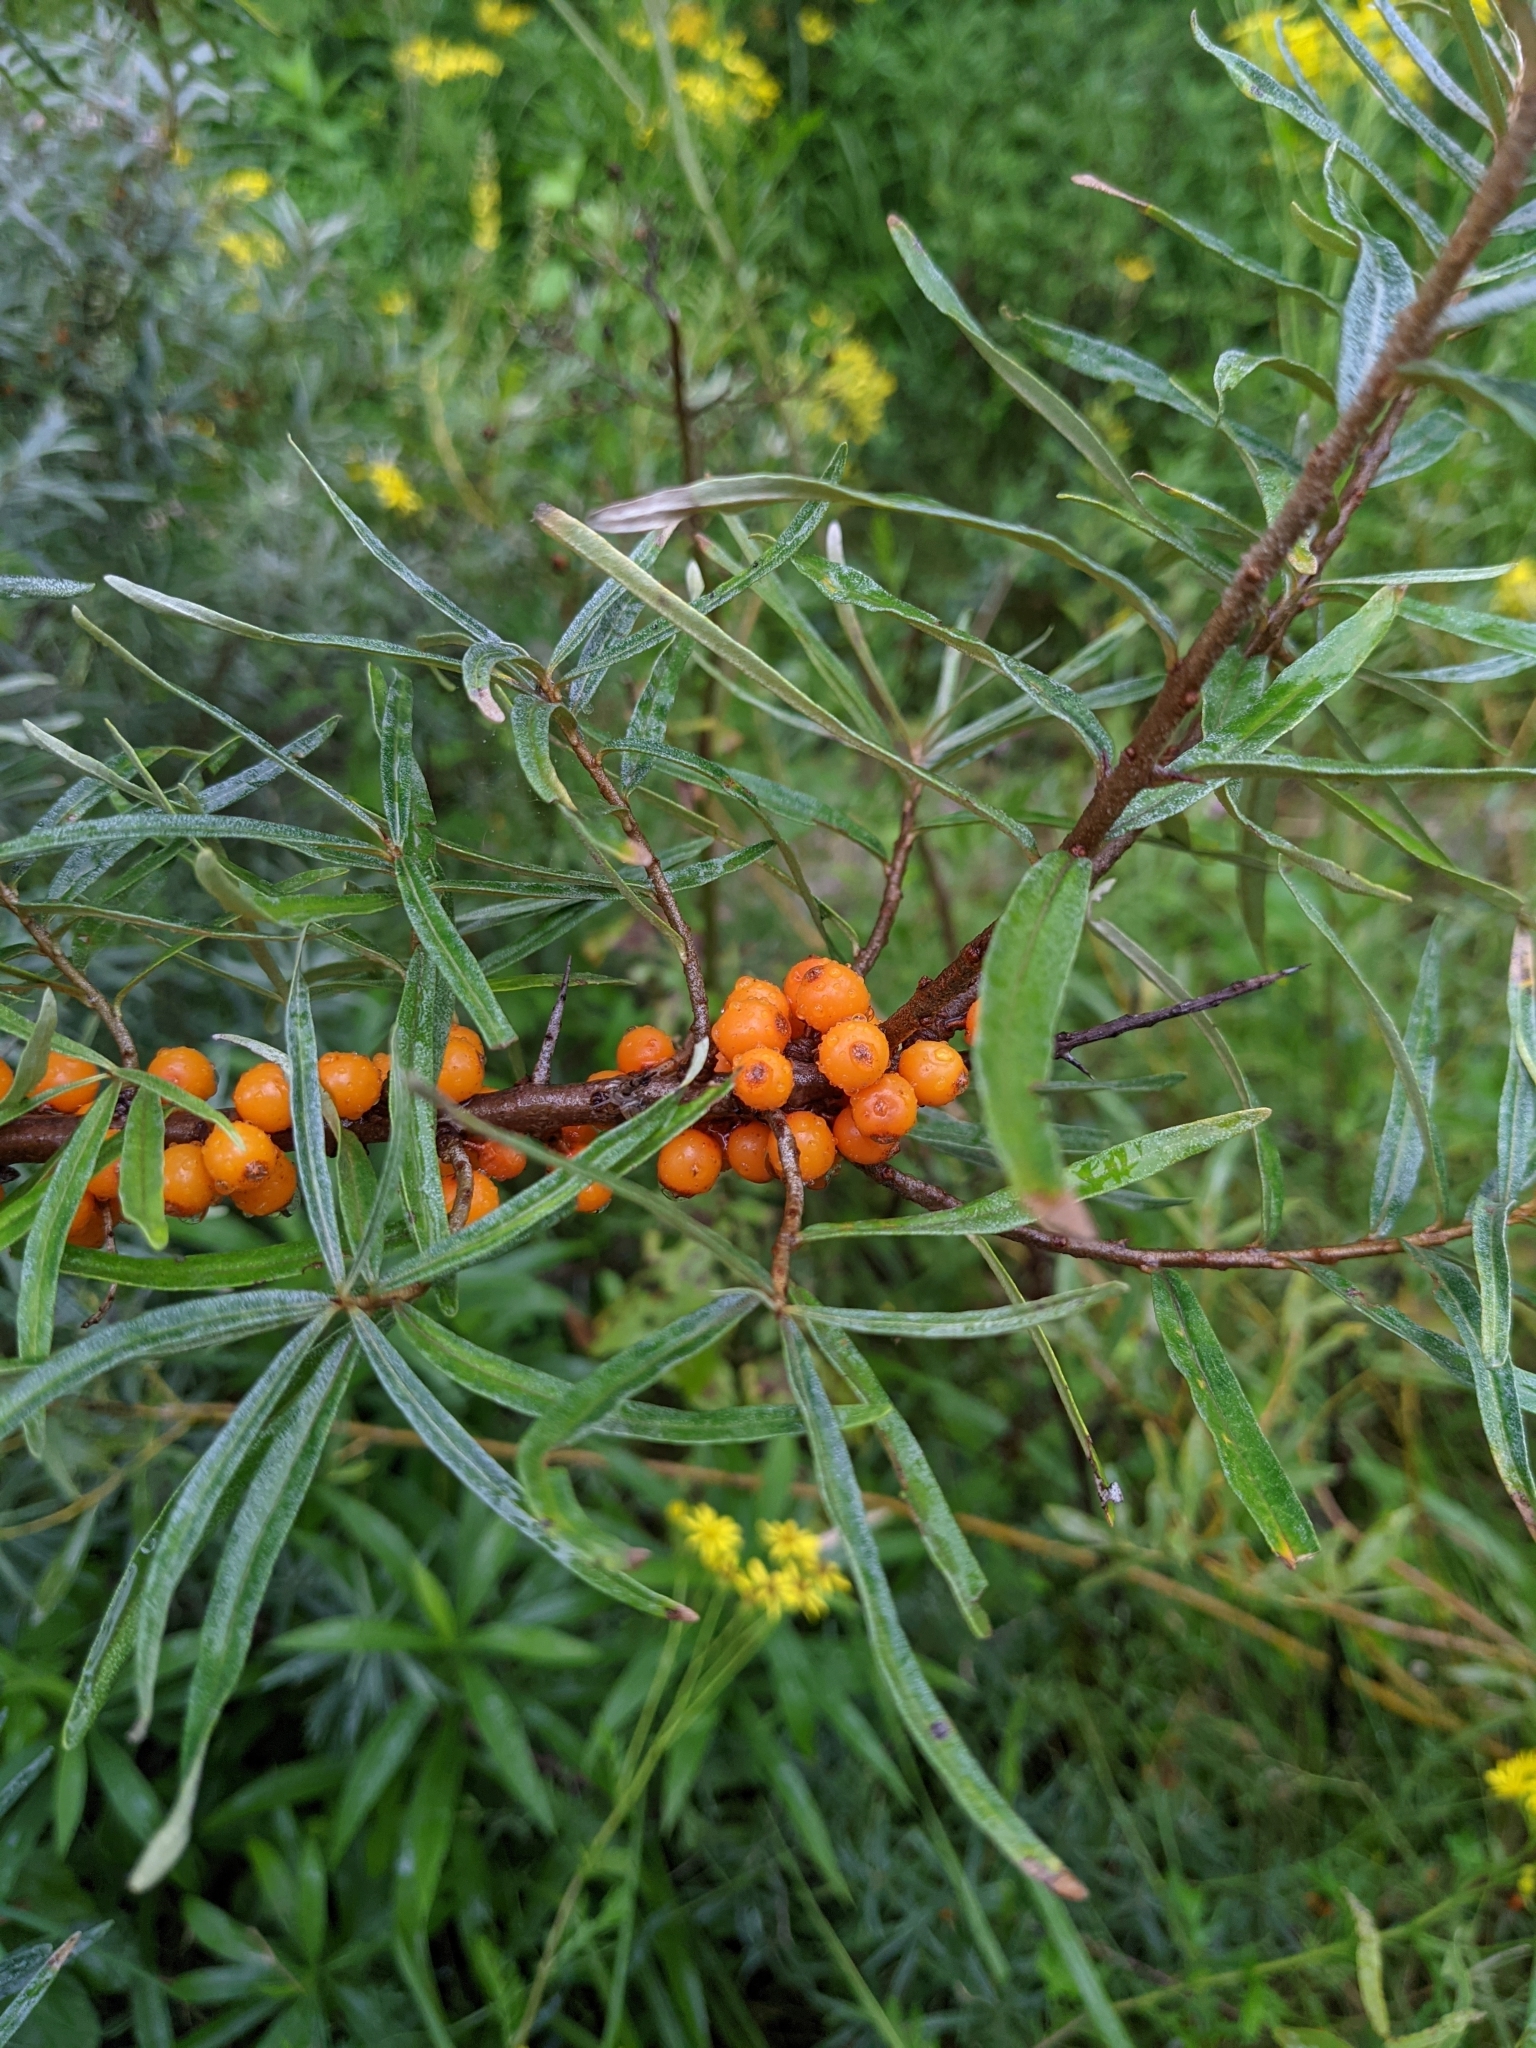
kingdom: Plantae
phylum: Tracheophyta
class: Magnoliopsida
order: Rosales
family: Elaeagnaceae
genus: Hippophae
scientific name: Hippophae rhamnoides
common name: Sea-buckthorn
